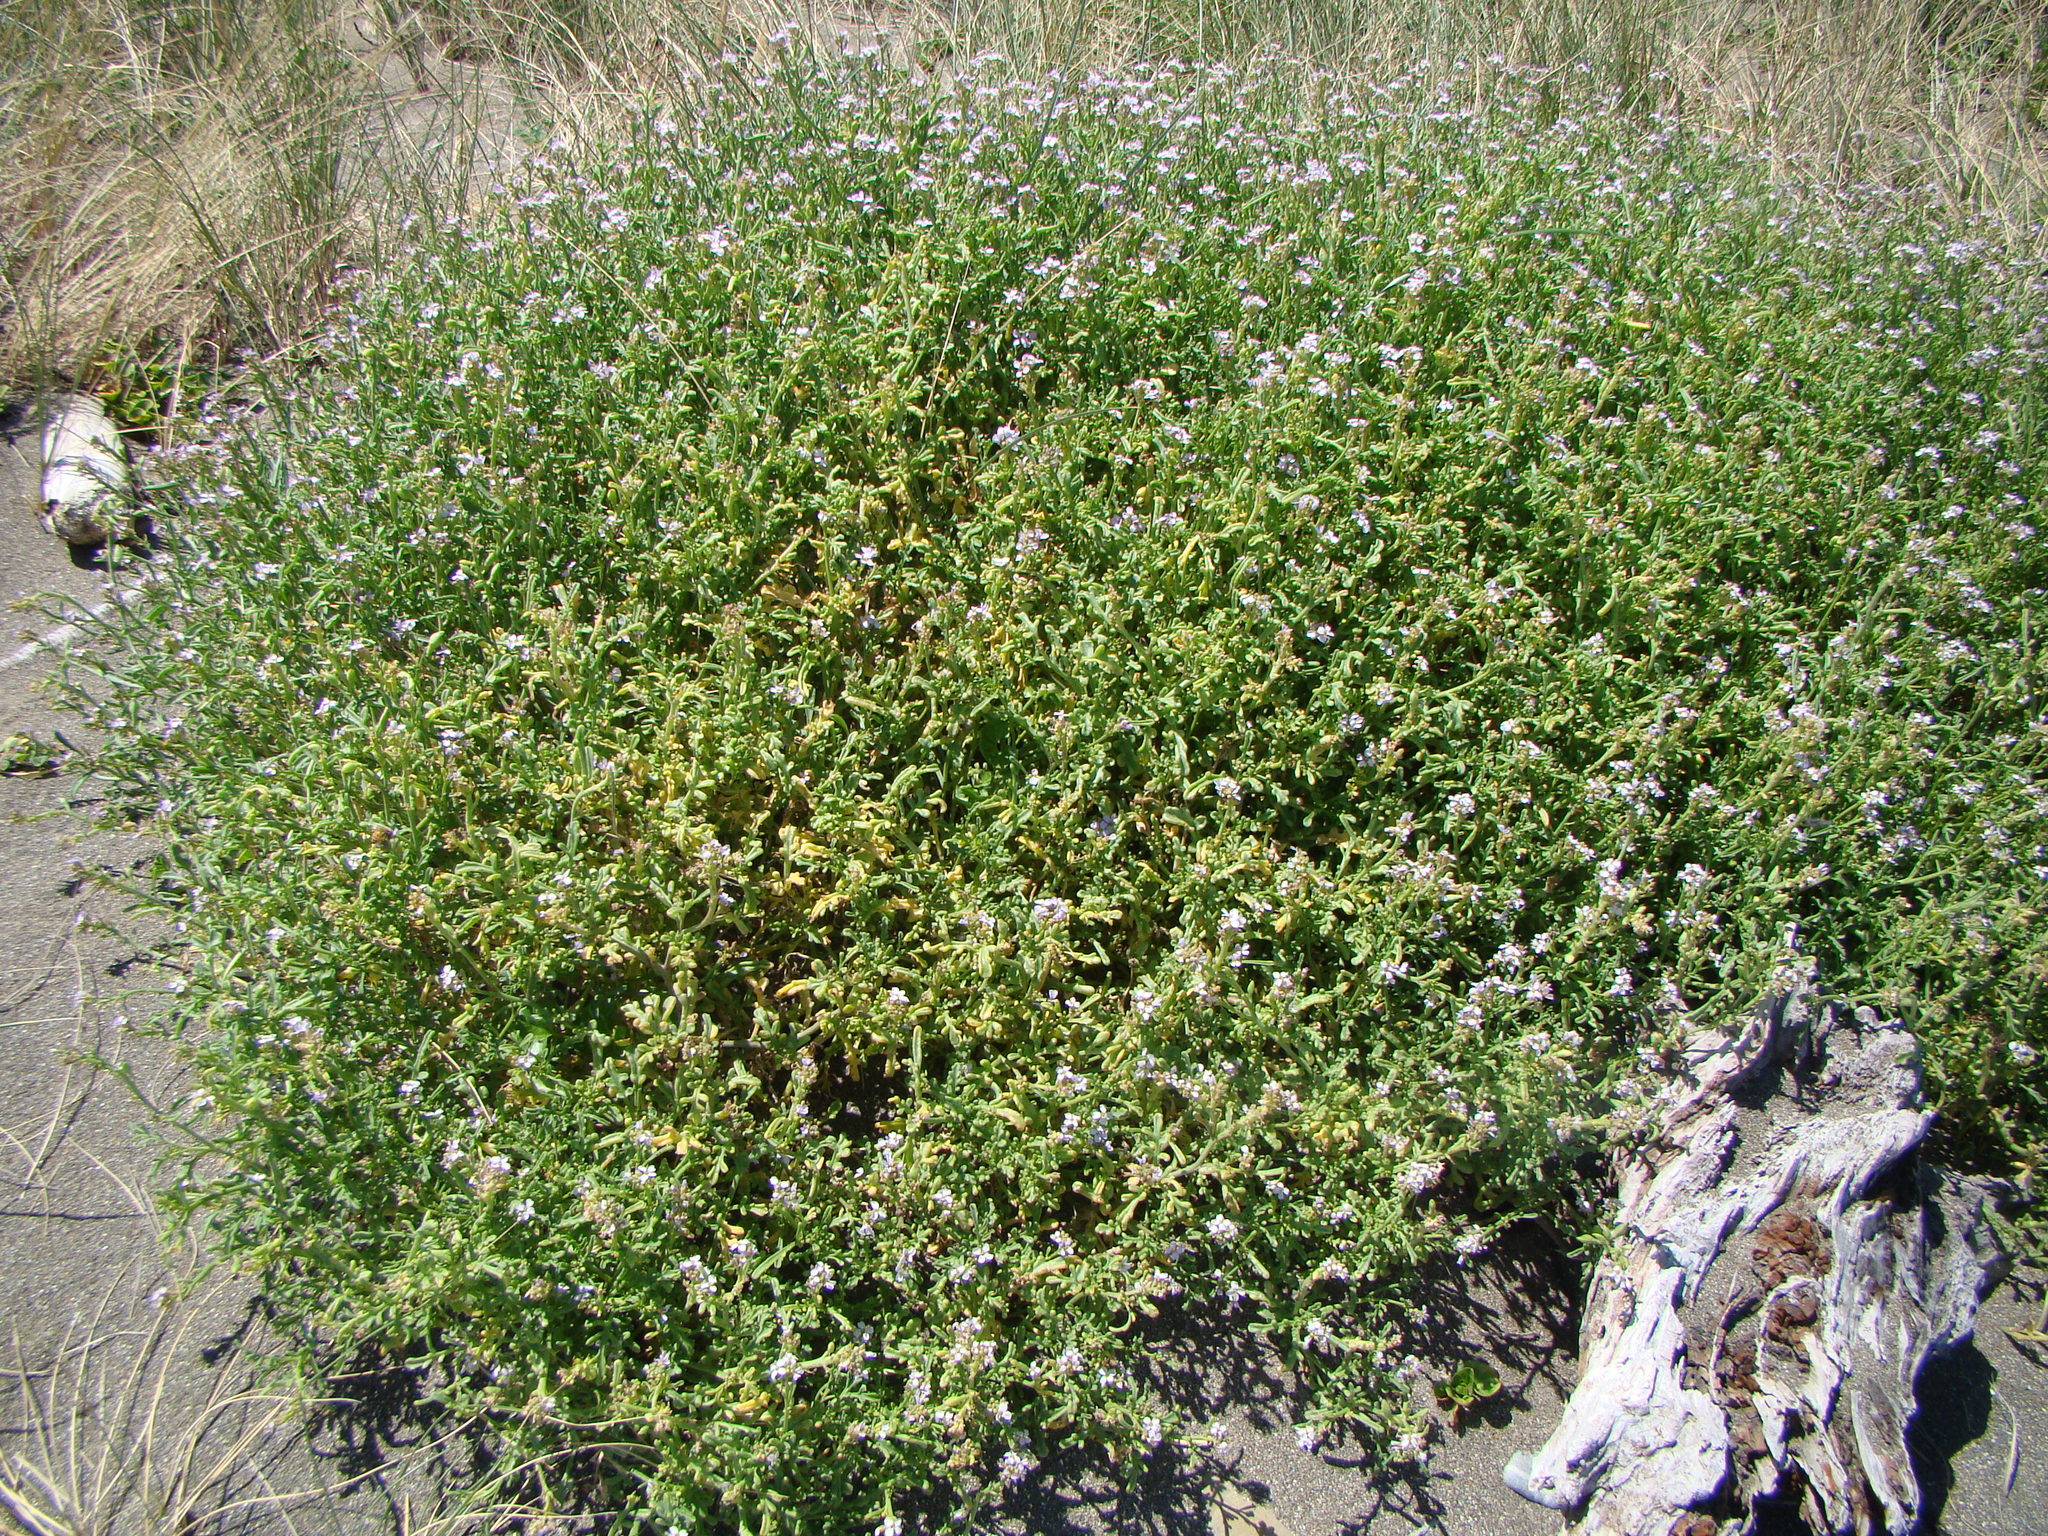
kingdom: Plantae
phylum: Tracheophyta
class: Magnoliopsida
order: Brassicales
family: Brassicaceae
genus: Cakile
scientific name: Cakile edentula
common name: American sea rocket
